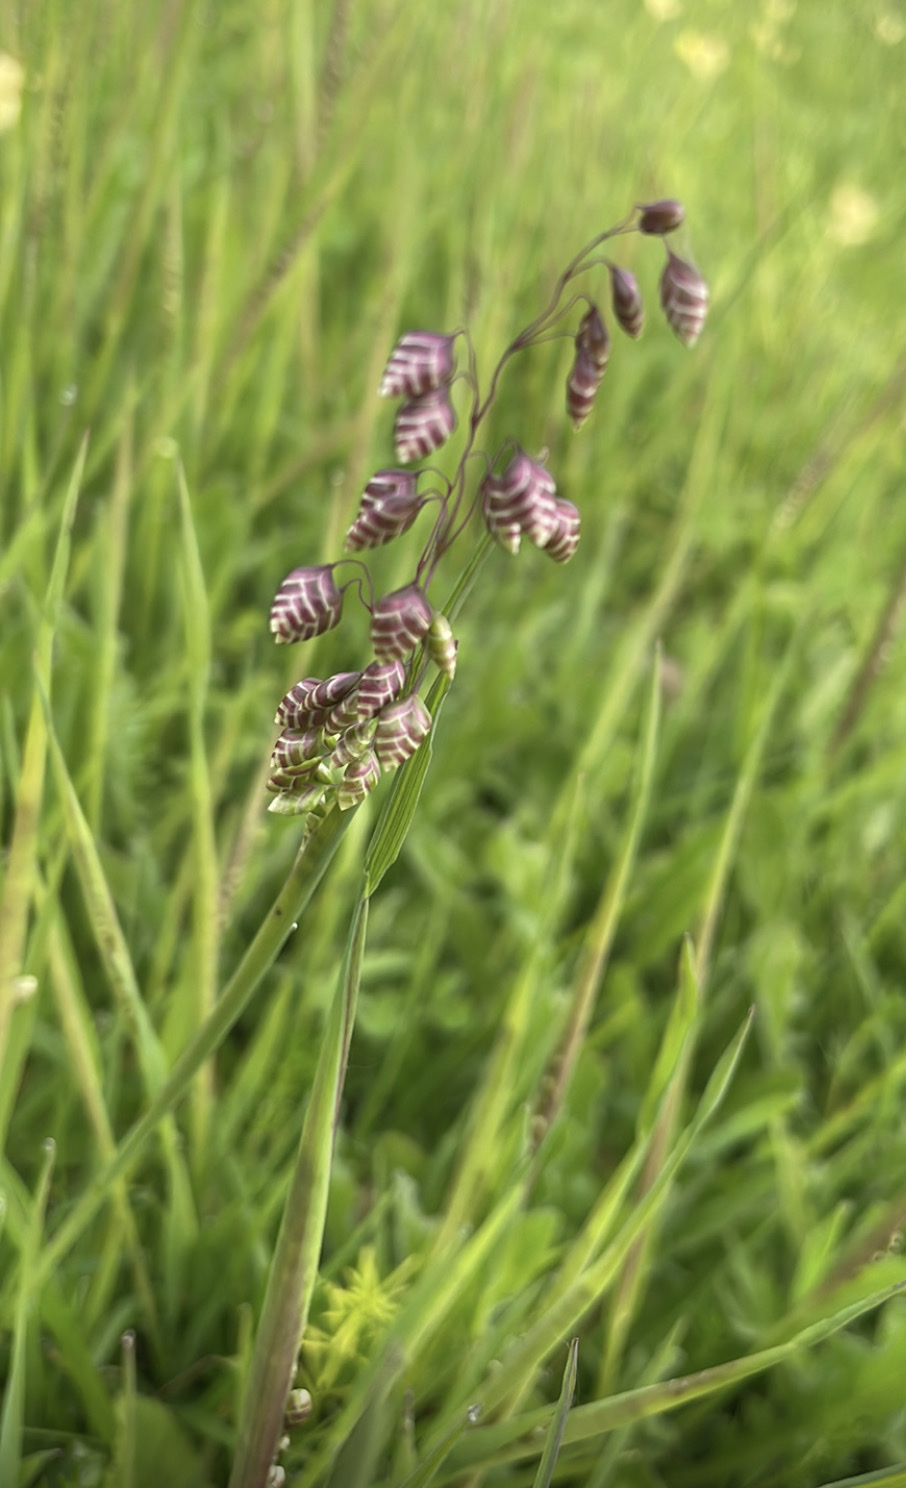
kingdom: Plantae
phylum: Tracheophyta
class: Liliopsida
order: Poales
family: Poaceae
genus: Briza
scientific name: Briza media
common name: Quaking grass
